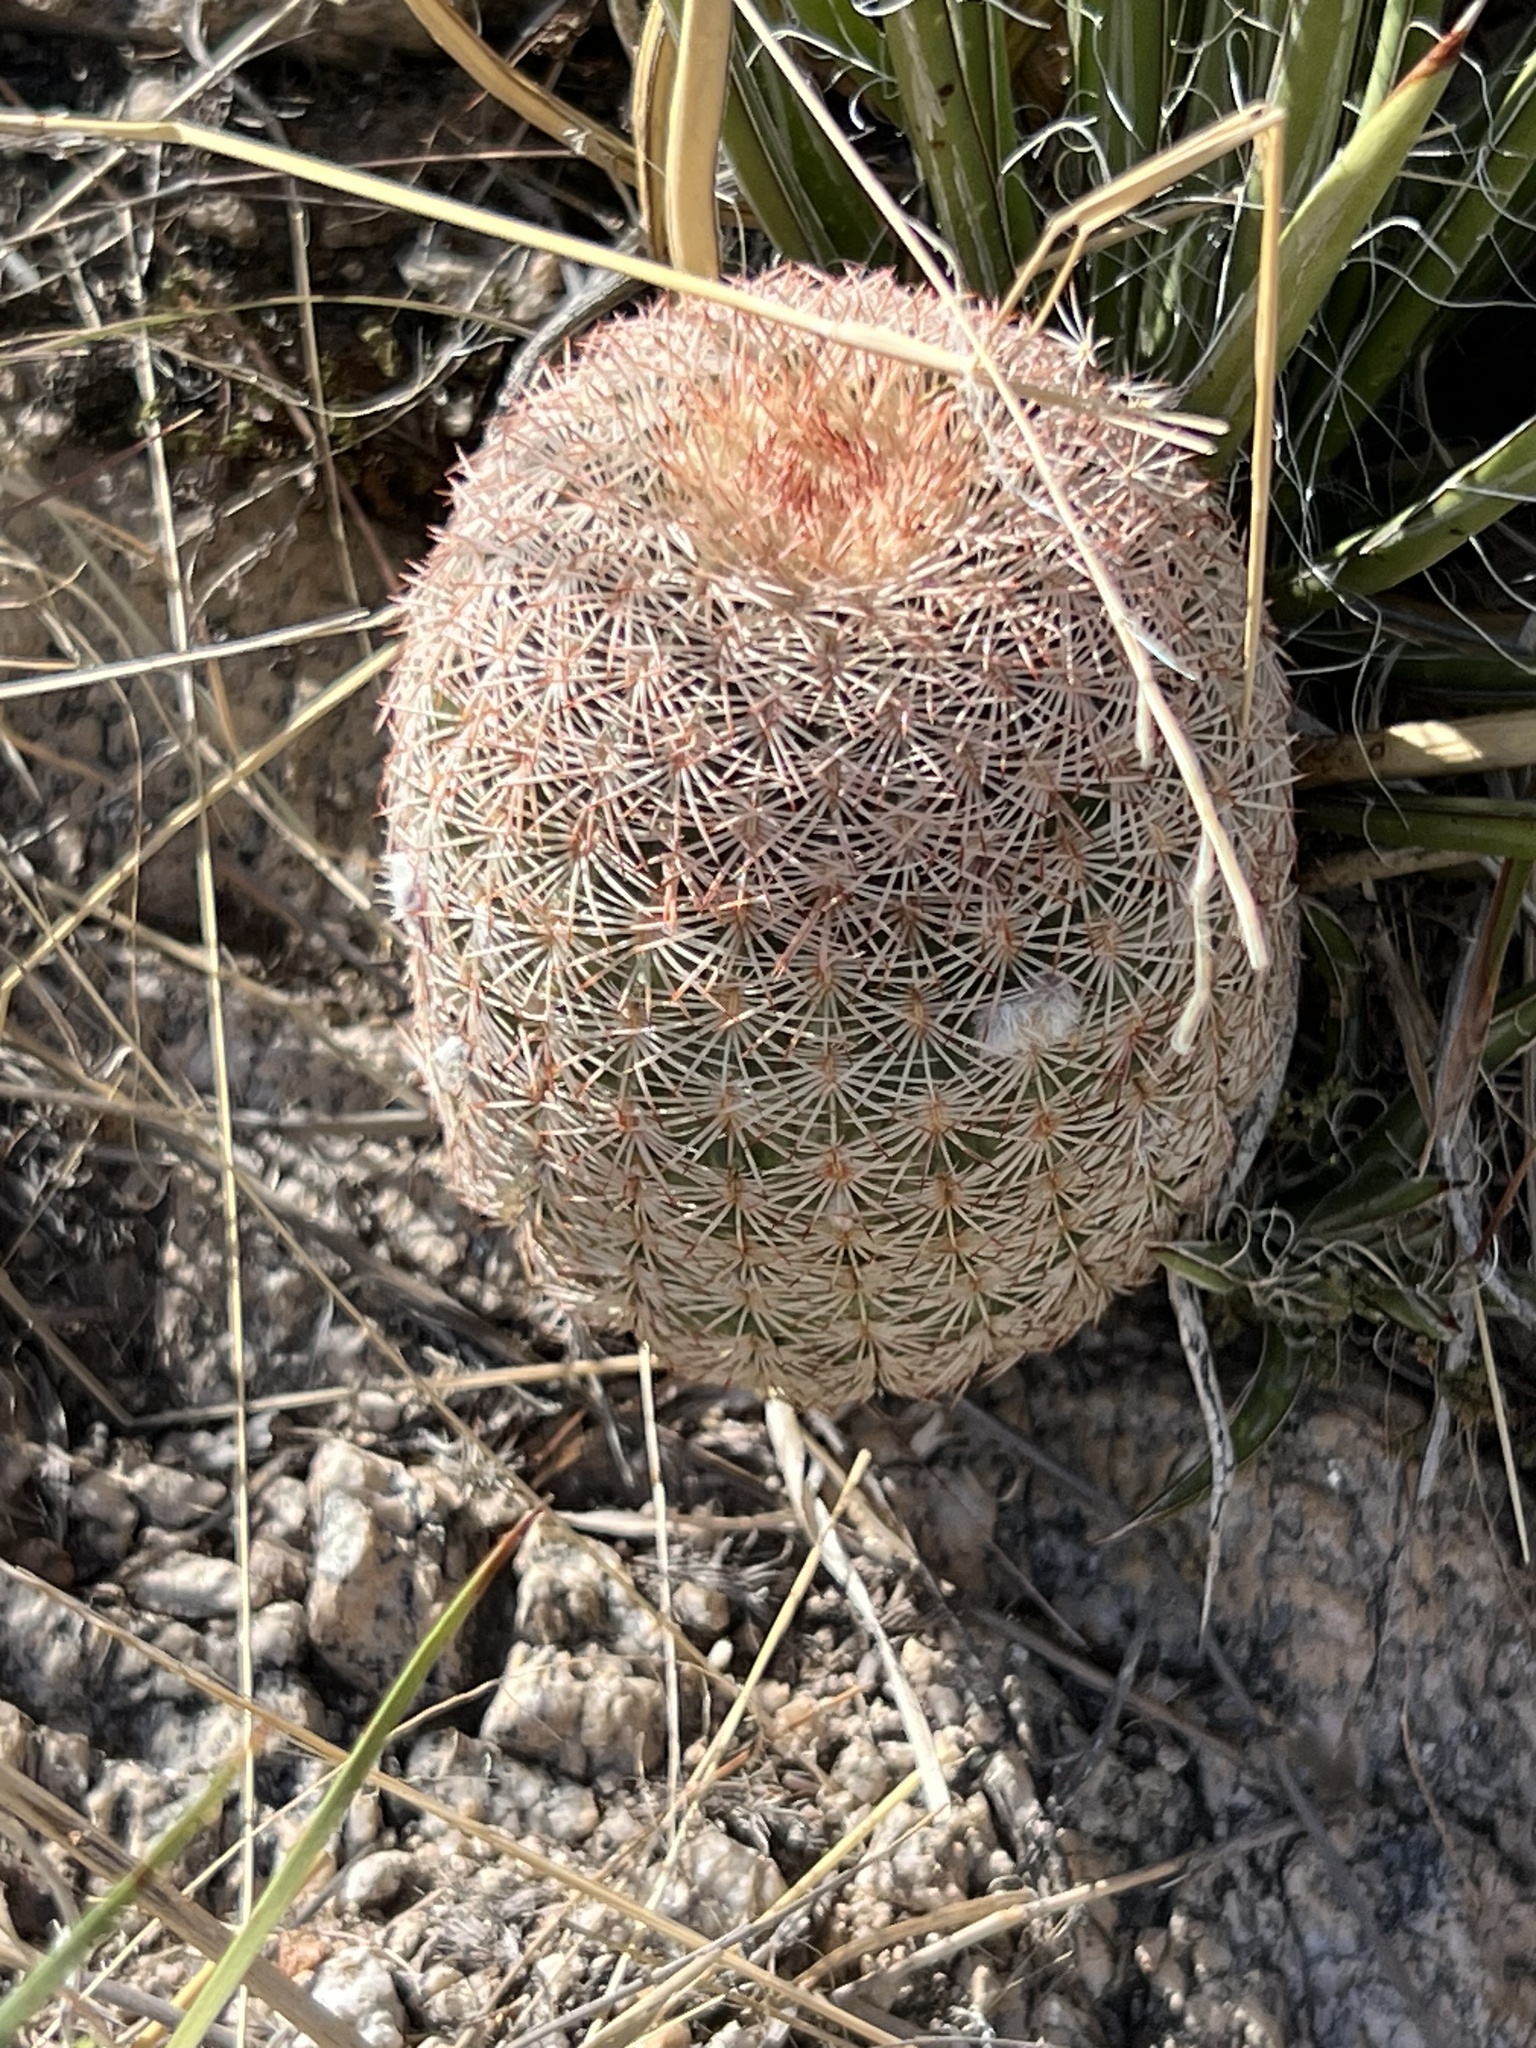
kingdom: Plantae
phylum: Tracheophyta
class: Magnoliopsida
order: Caryophyllales
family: Cactaceae
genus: Echinocereus
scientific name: Echinocereus rigidissimus
